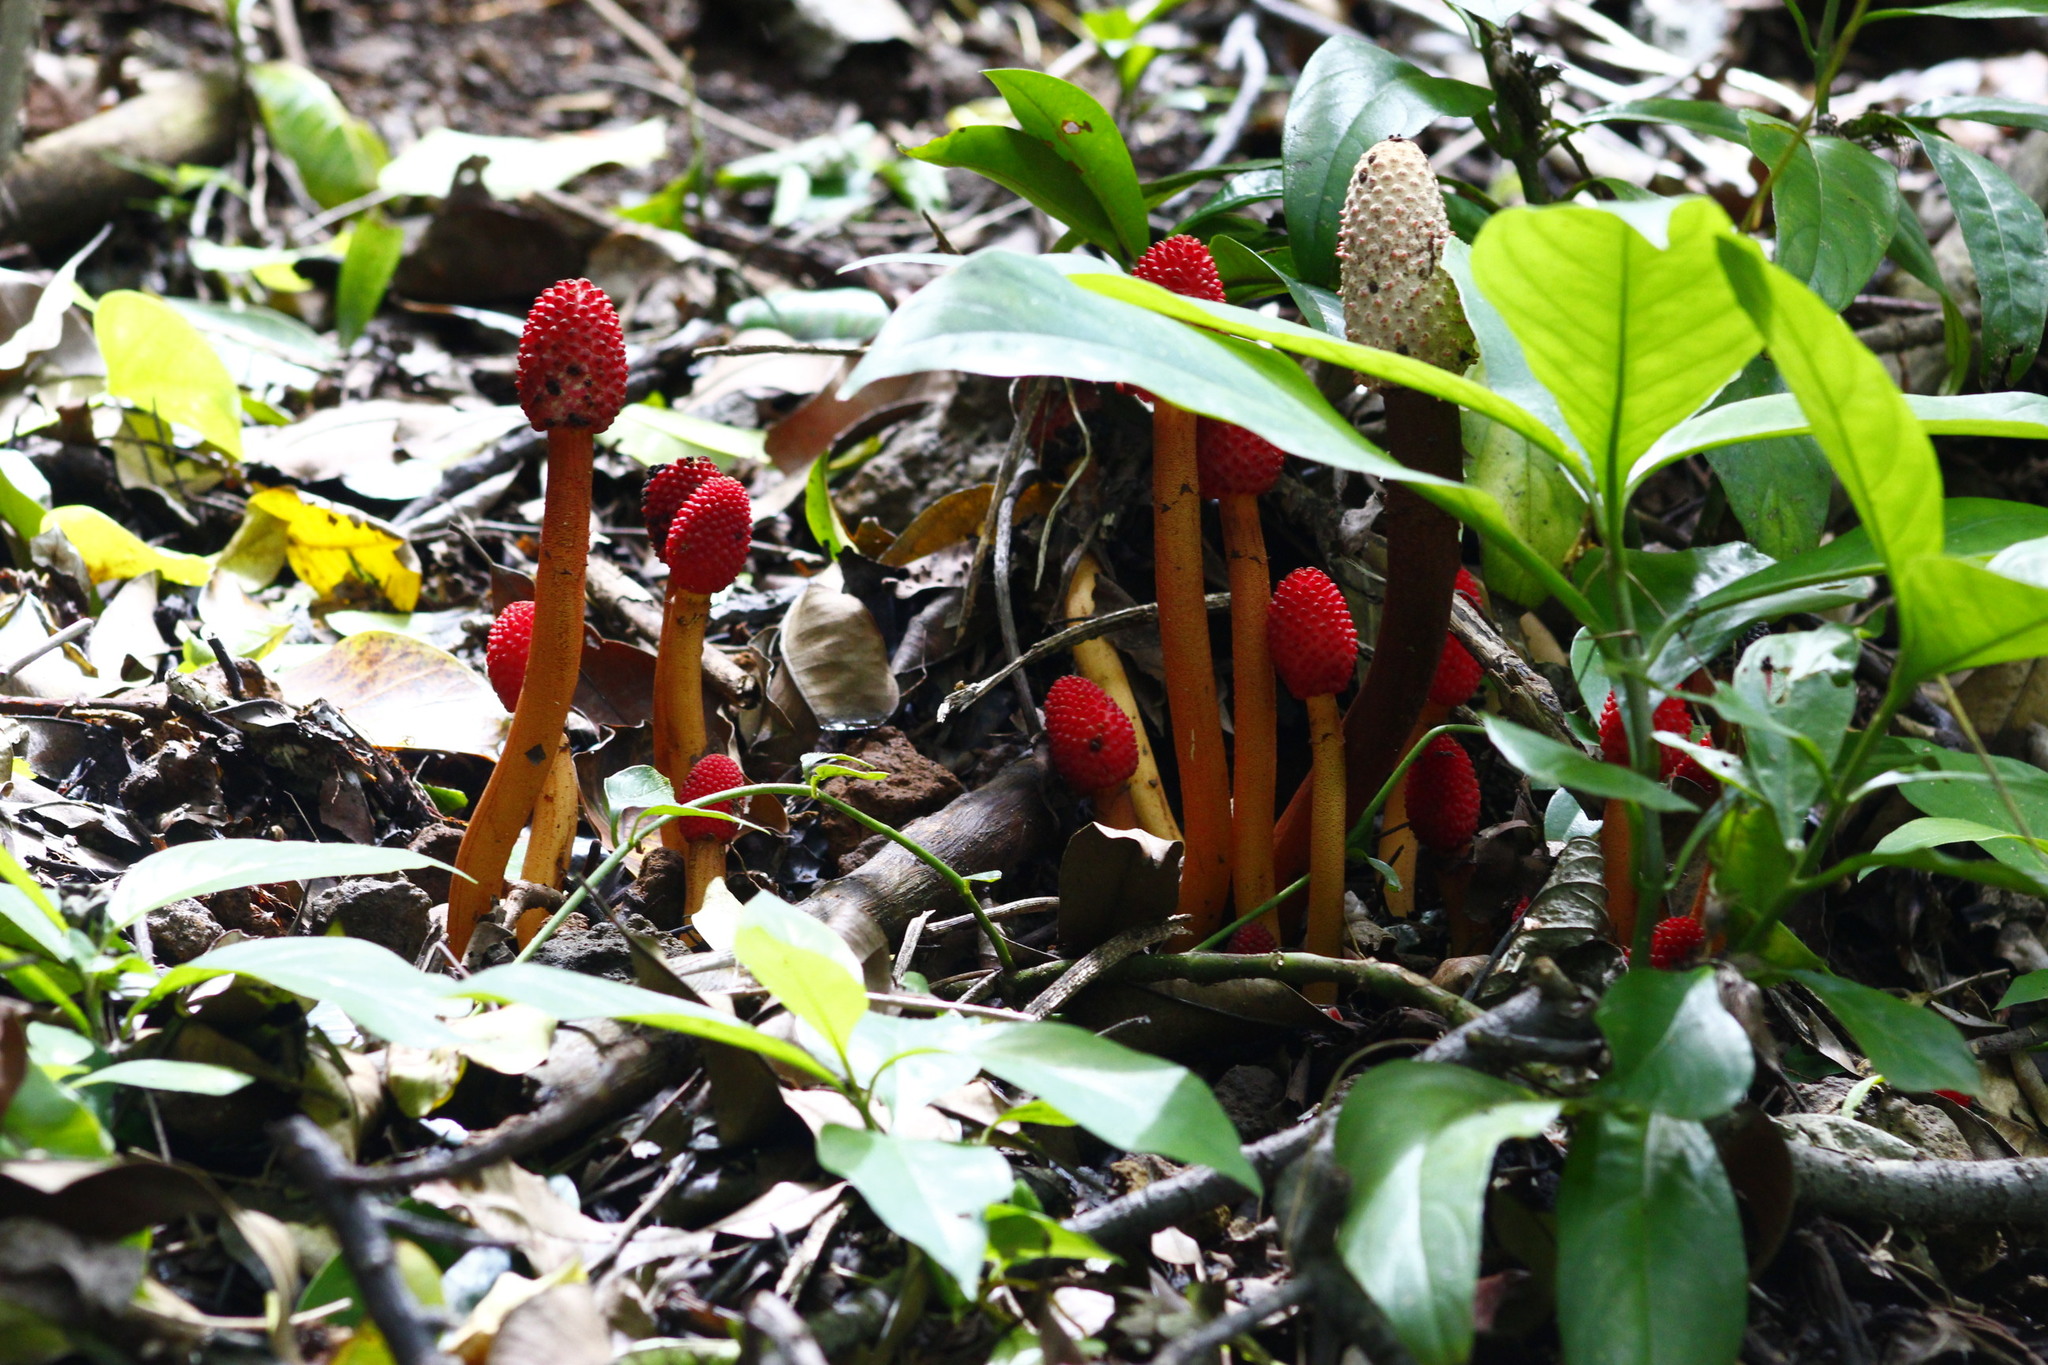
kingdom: Plantae
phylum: Tracheophyta
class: Magnoliopsida
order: Santalales
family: Balanophoraceae
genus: Helosis
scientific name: Helosis cayennensis
